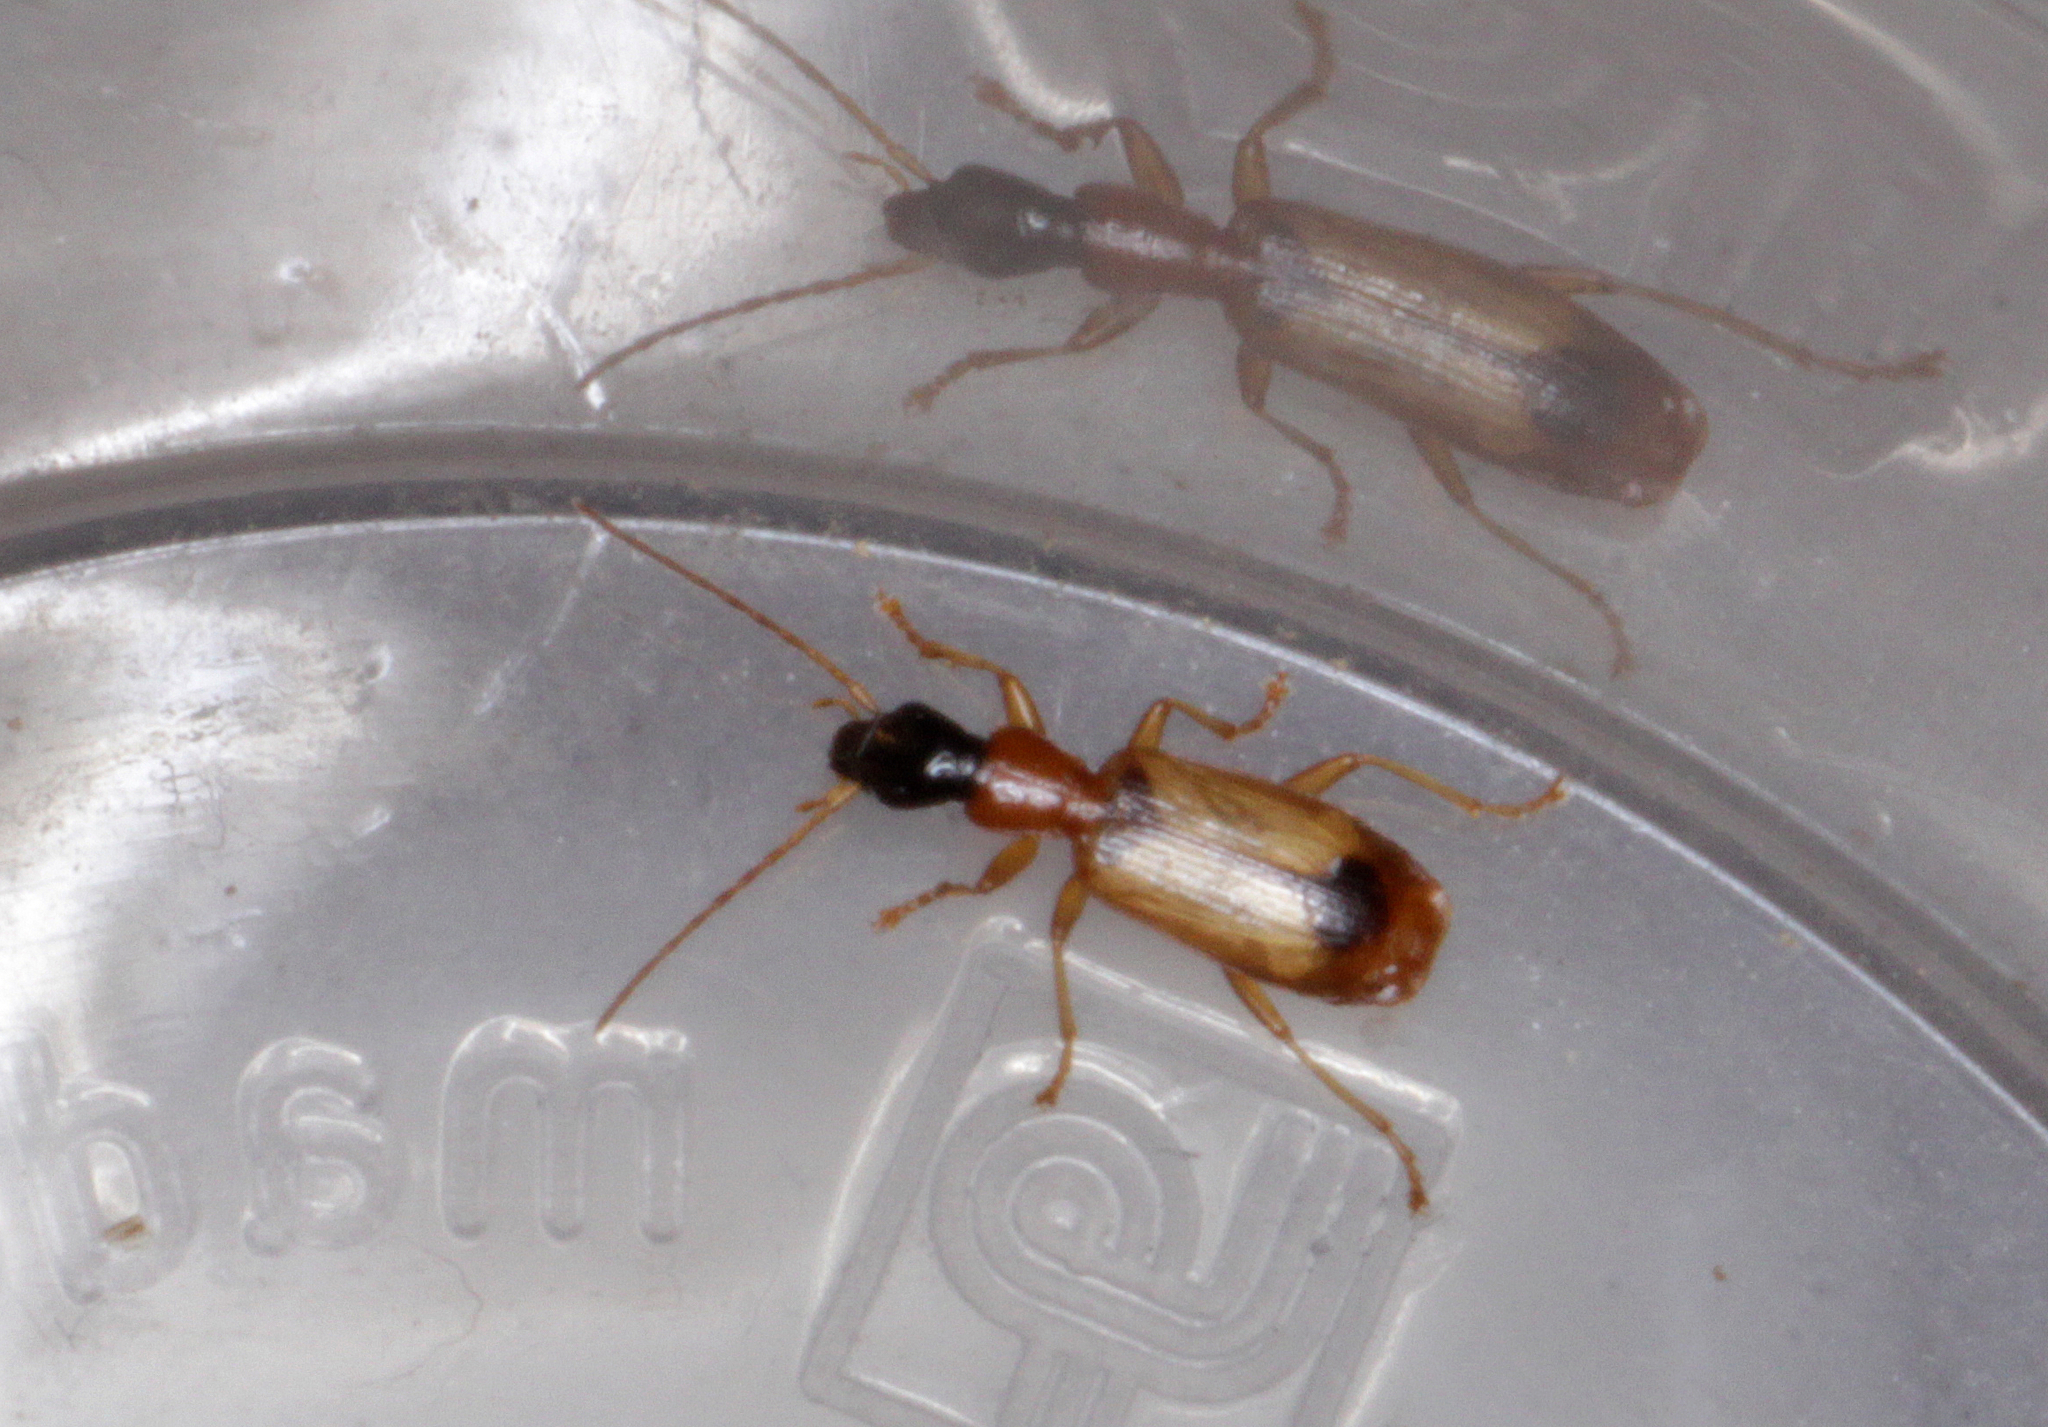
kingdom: Animalia
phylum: Arthropoda
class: Insecta
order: Coleoptera
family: Carabidae
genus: Demetrias
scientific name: Demetrias monostigma
